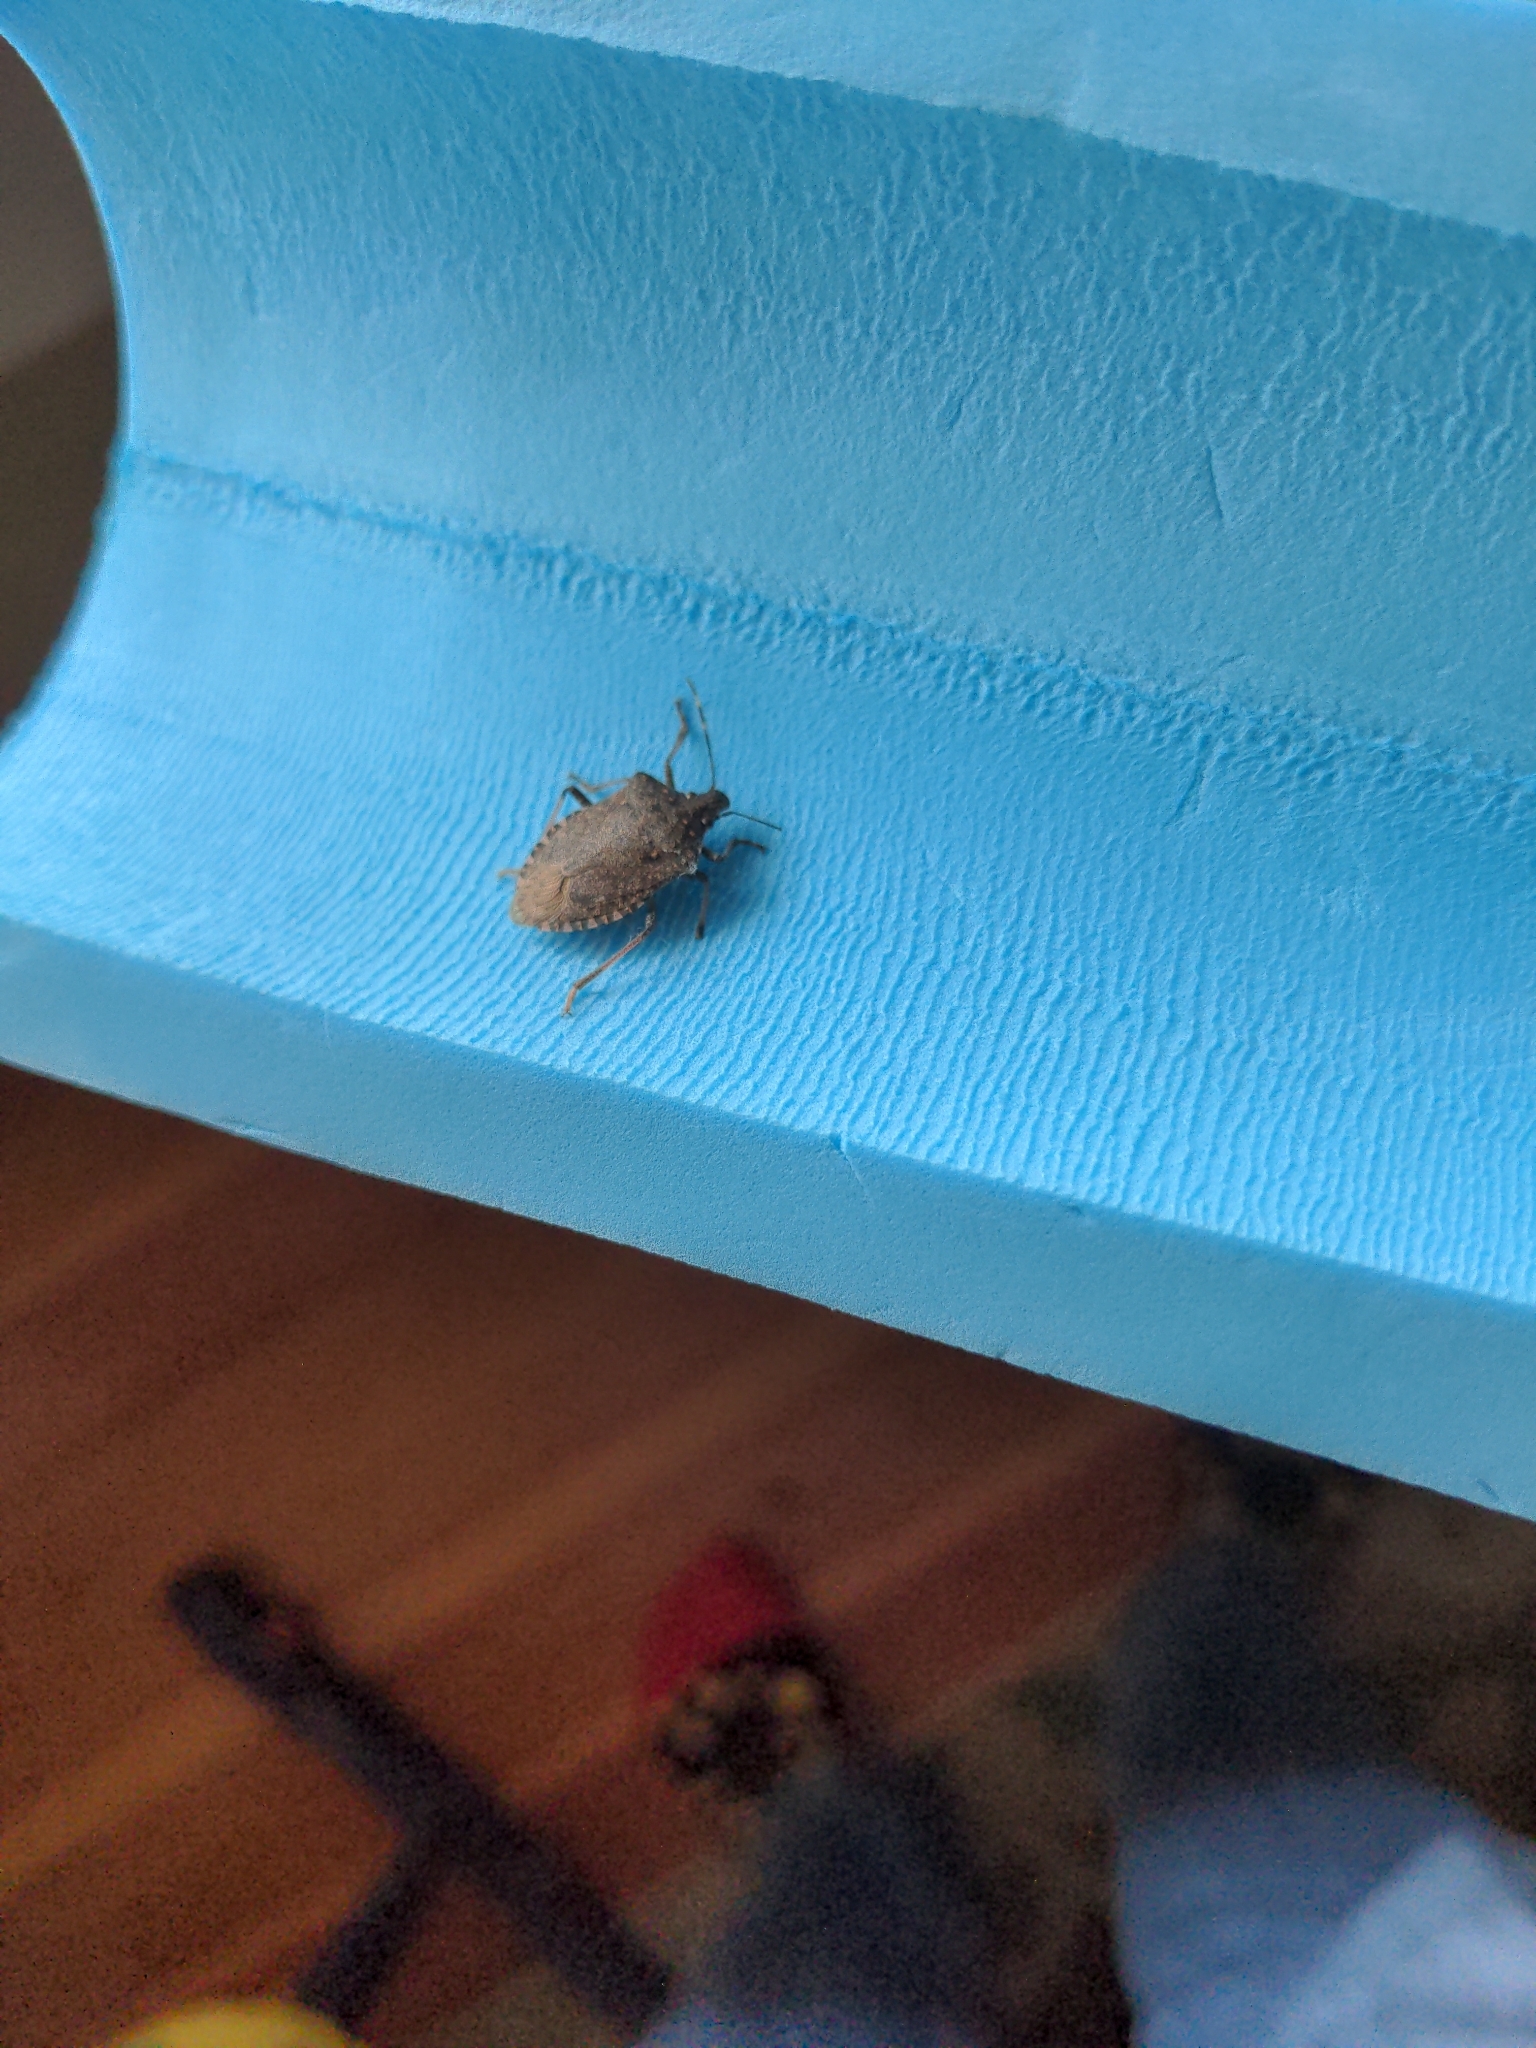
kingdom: Animalia
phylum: Arthropoda
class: Insecta
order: Hemiptera
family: Pentatomidae
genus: Halyomorpha
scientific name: Halyomorpha halys
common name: Brown marmorated stink bug
